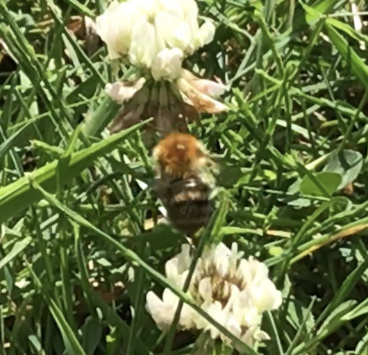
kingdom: Animalia
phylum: Arthropoda
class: Insecta
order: Hymenoptera
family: Apidae
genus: Bombus
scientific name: Bombus pascuorum
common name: Common carder bee
